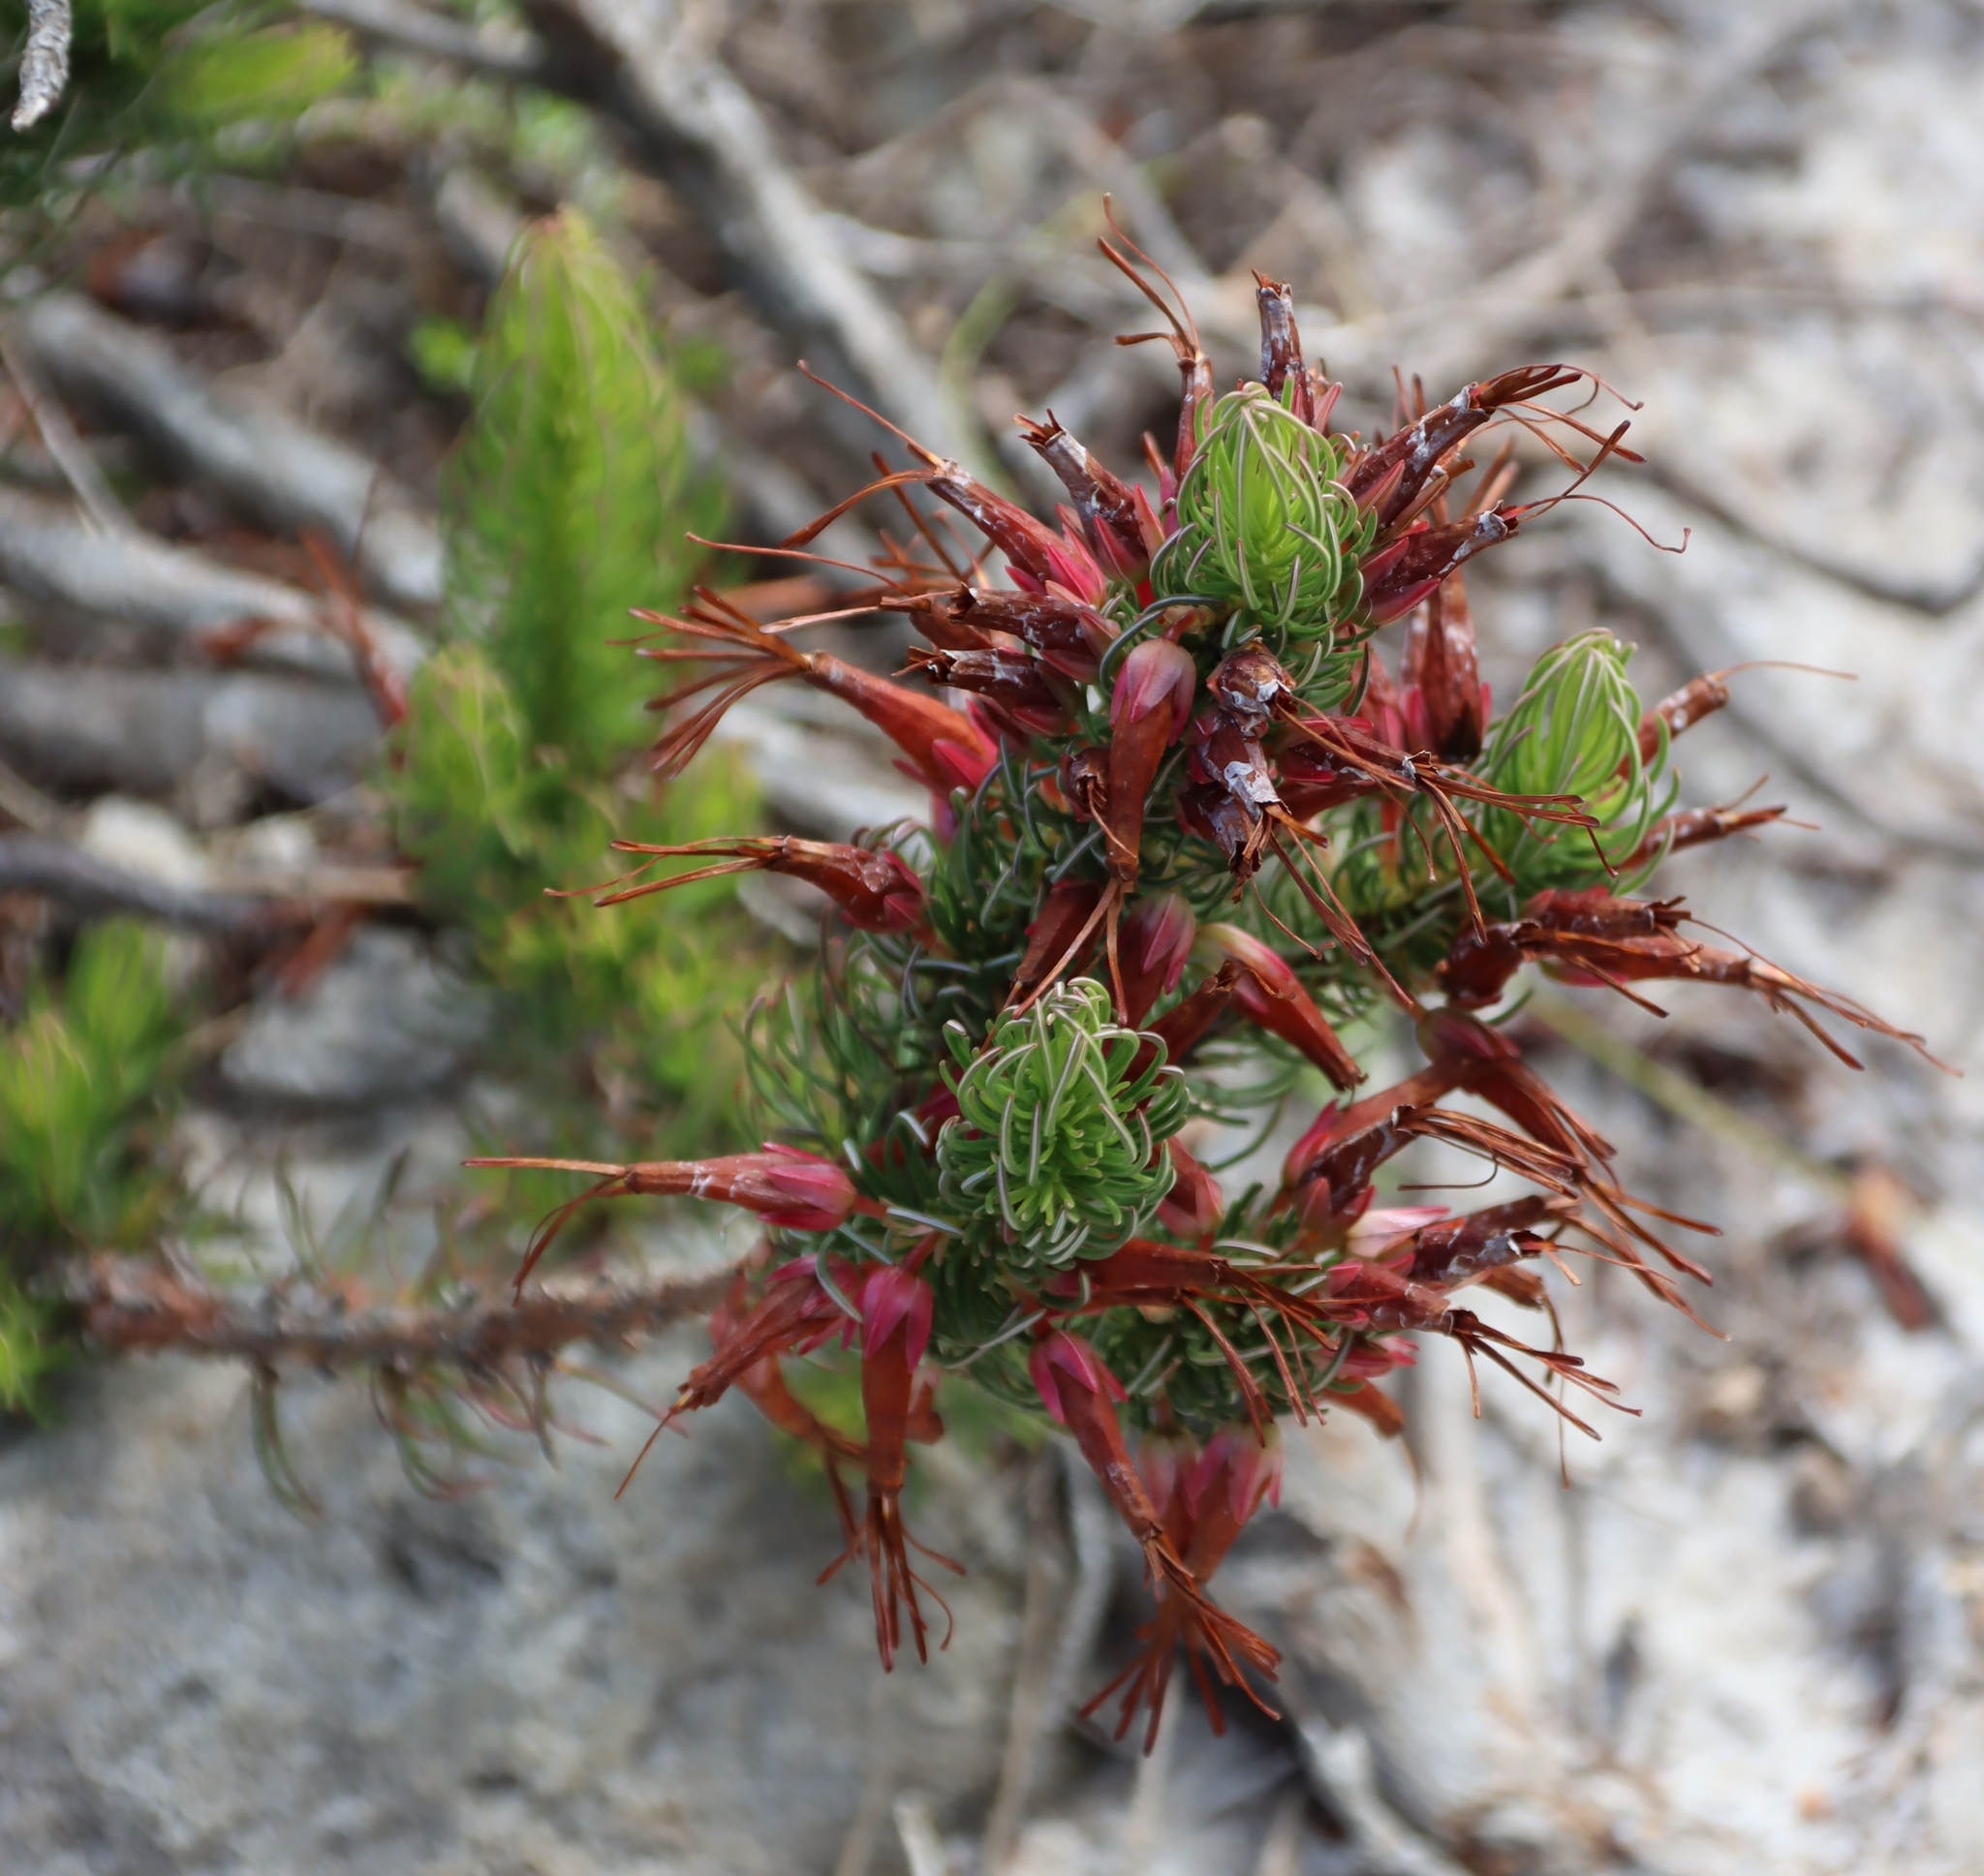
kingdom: Plantae
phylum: Tracheophyta
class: Magnoliopsida
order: Ericales
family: Ericaceae
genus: Erica
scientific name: Erica plukenetii
